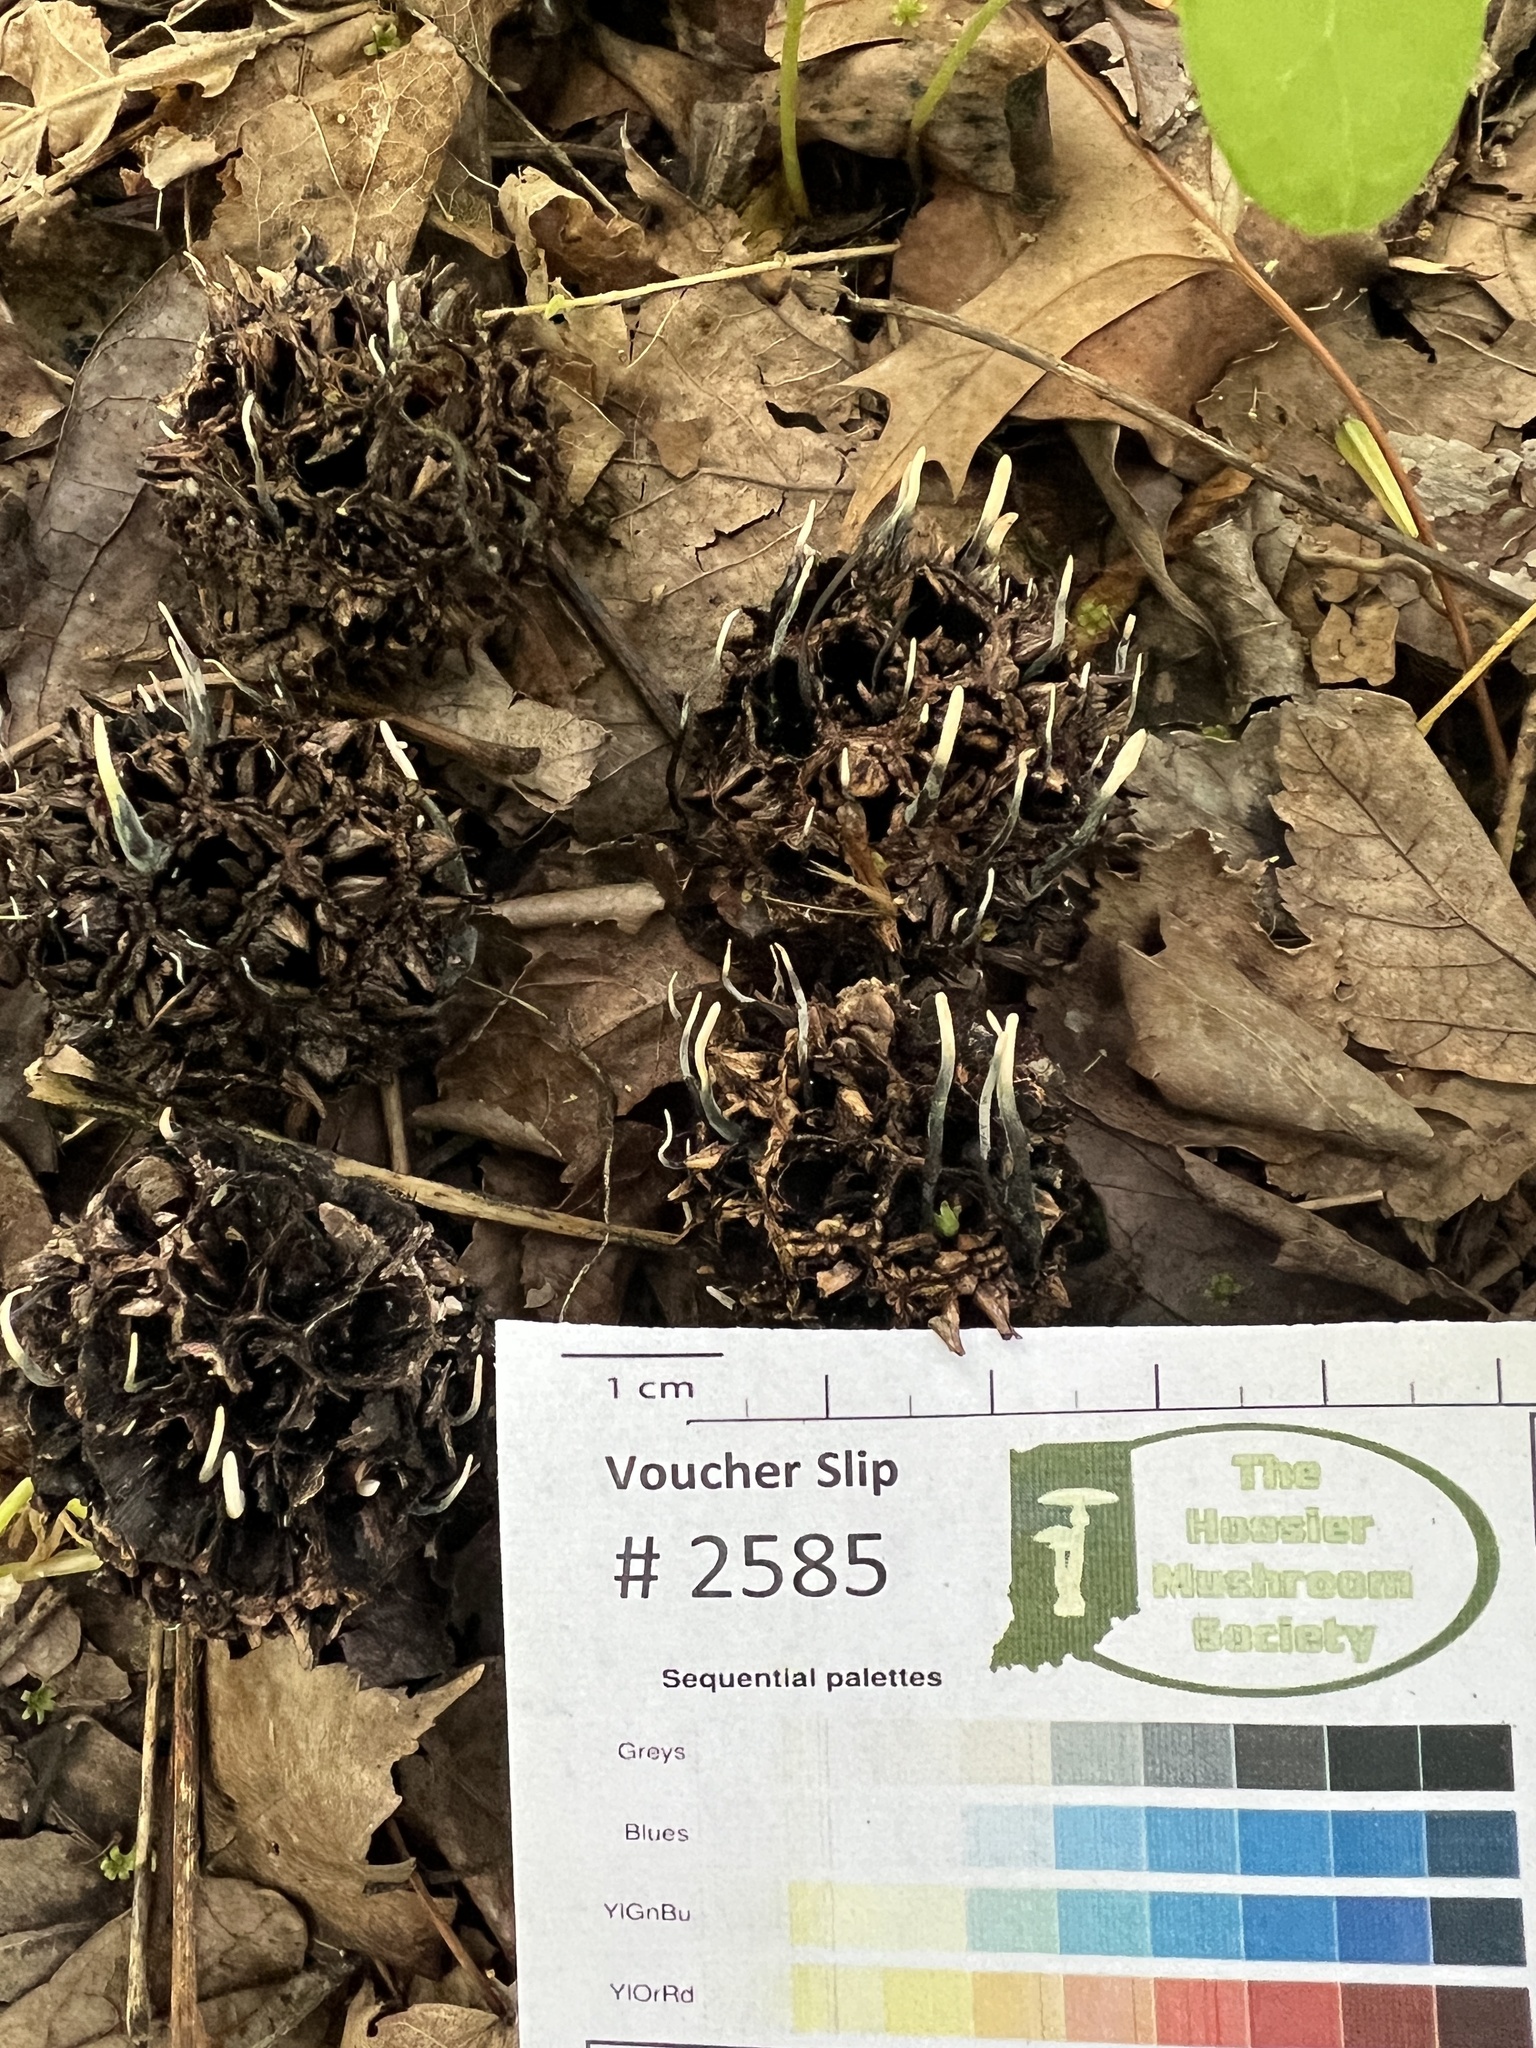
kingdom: Fungi
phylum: Ascomycota
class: Sordariomycetes
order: Xylariales
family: Xylariaceae
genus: Xylaria
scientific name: Xylaria liquidambaris
